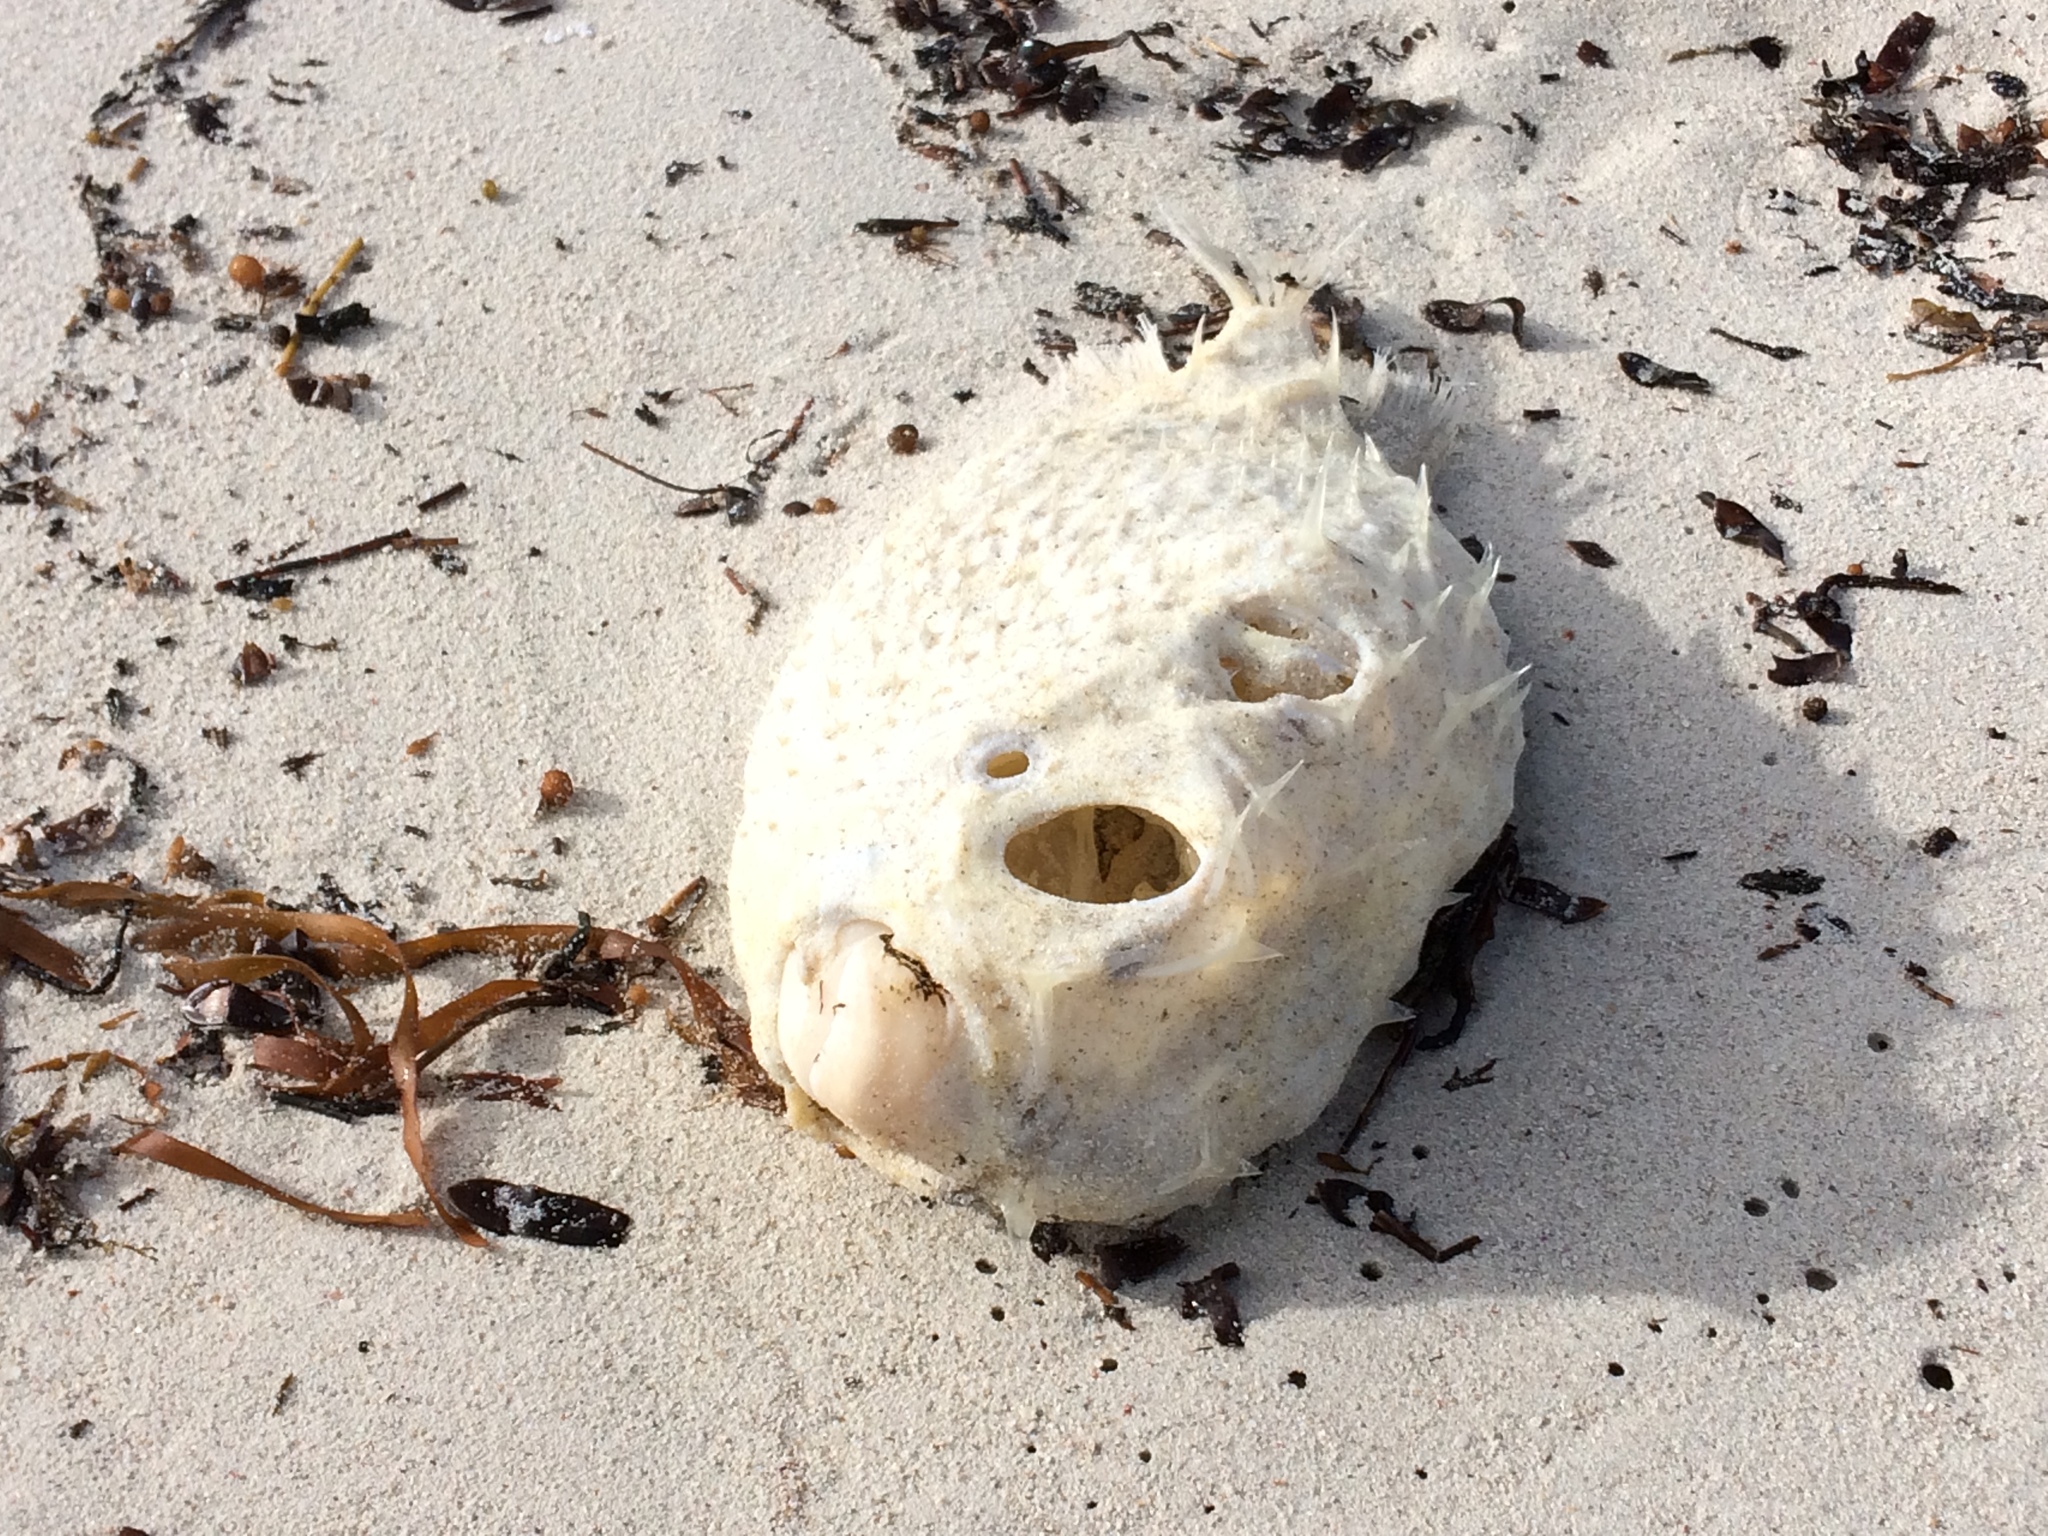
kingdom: Animalia
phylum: Chordata
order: Tetraodontiformes
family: Diodontidae
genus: Allomycterus
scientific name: Allomycterus pilatus
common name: No common name
